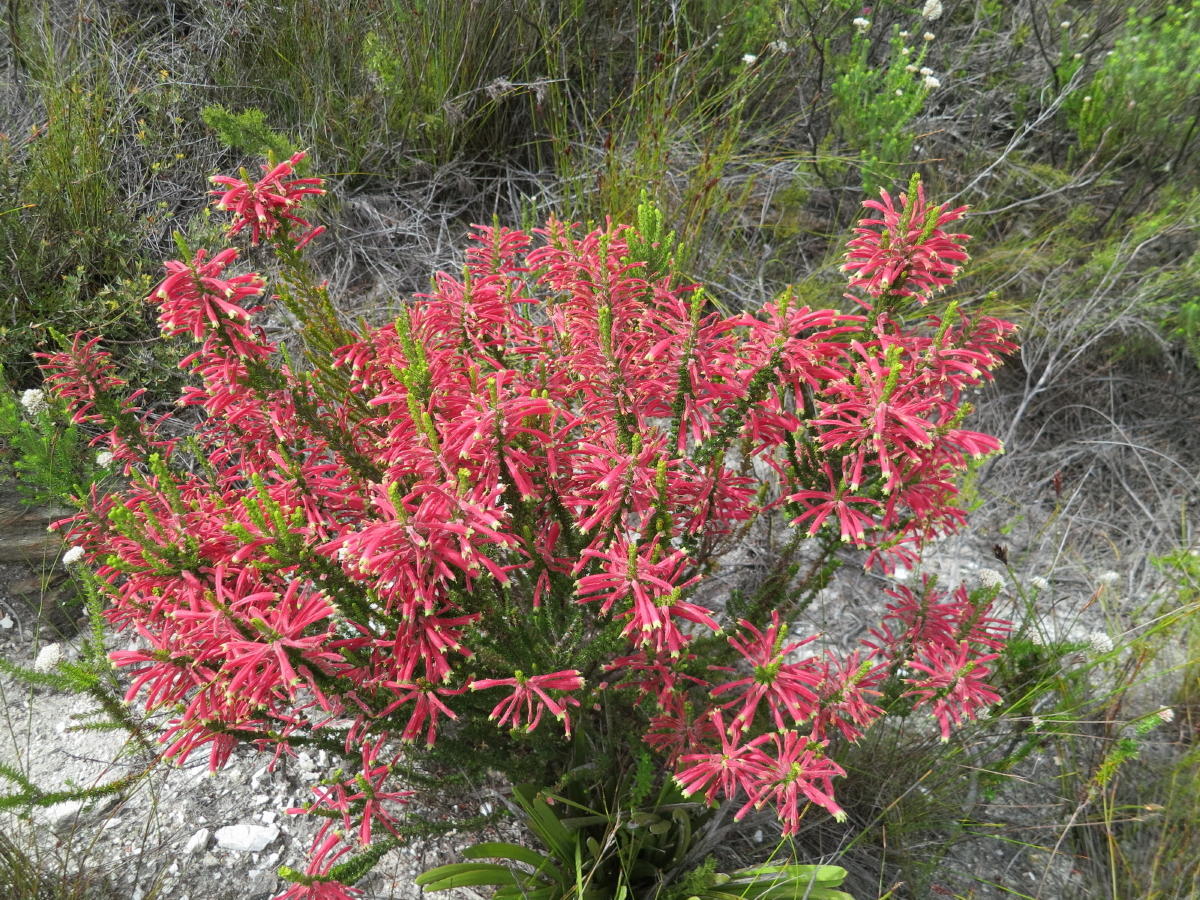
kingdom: Plantae
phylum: Tracheophyta
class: Magnoliopsida
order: Ericales
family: Ericaceae
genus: Erica
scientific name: Erica densifolia
